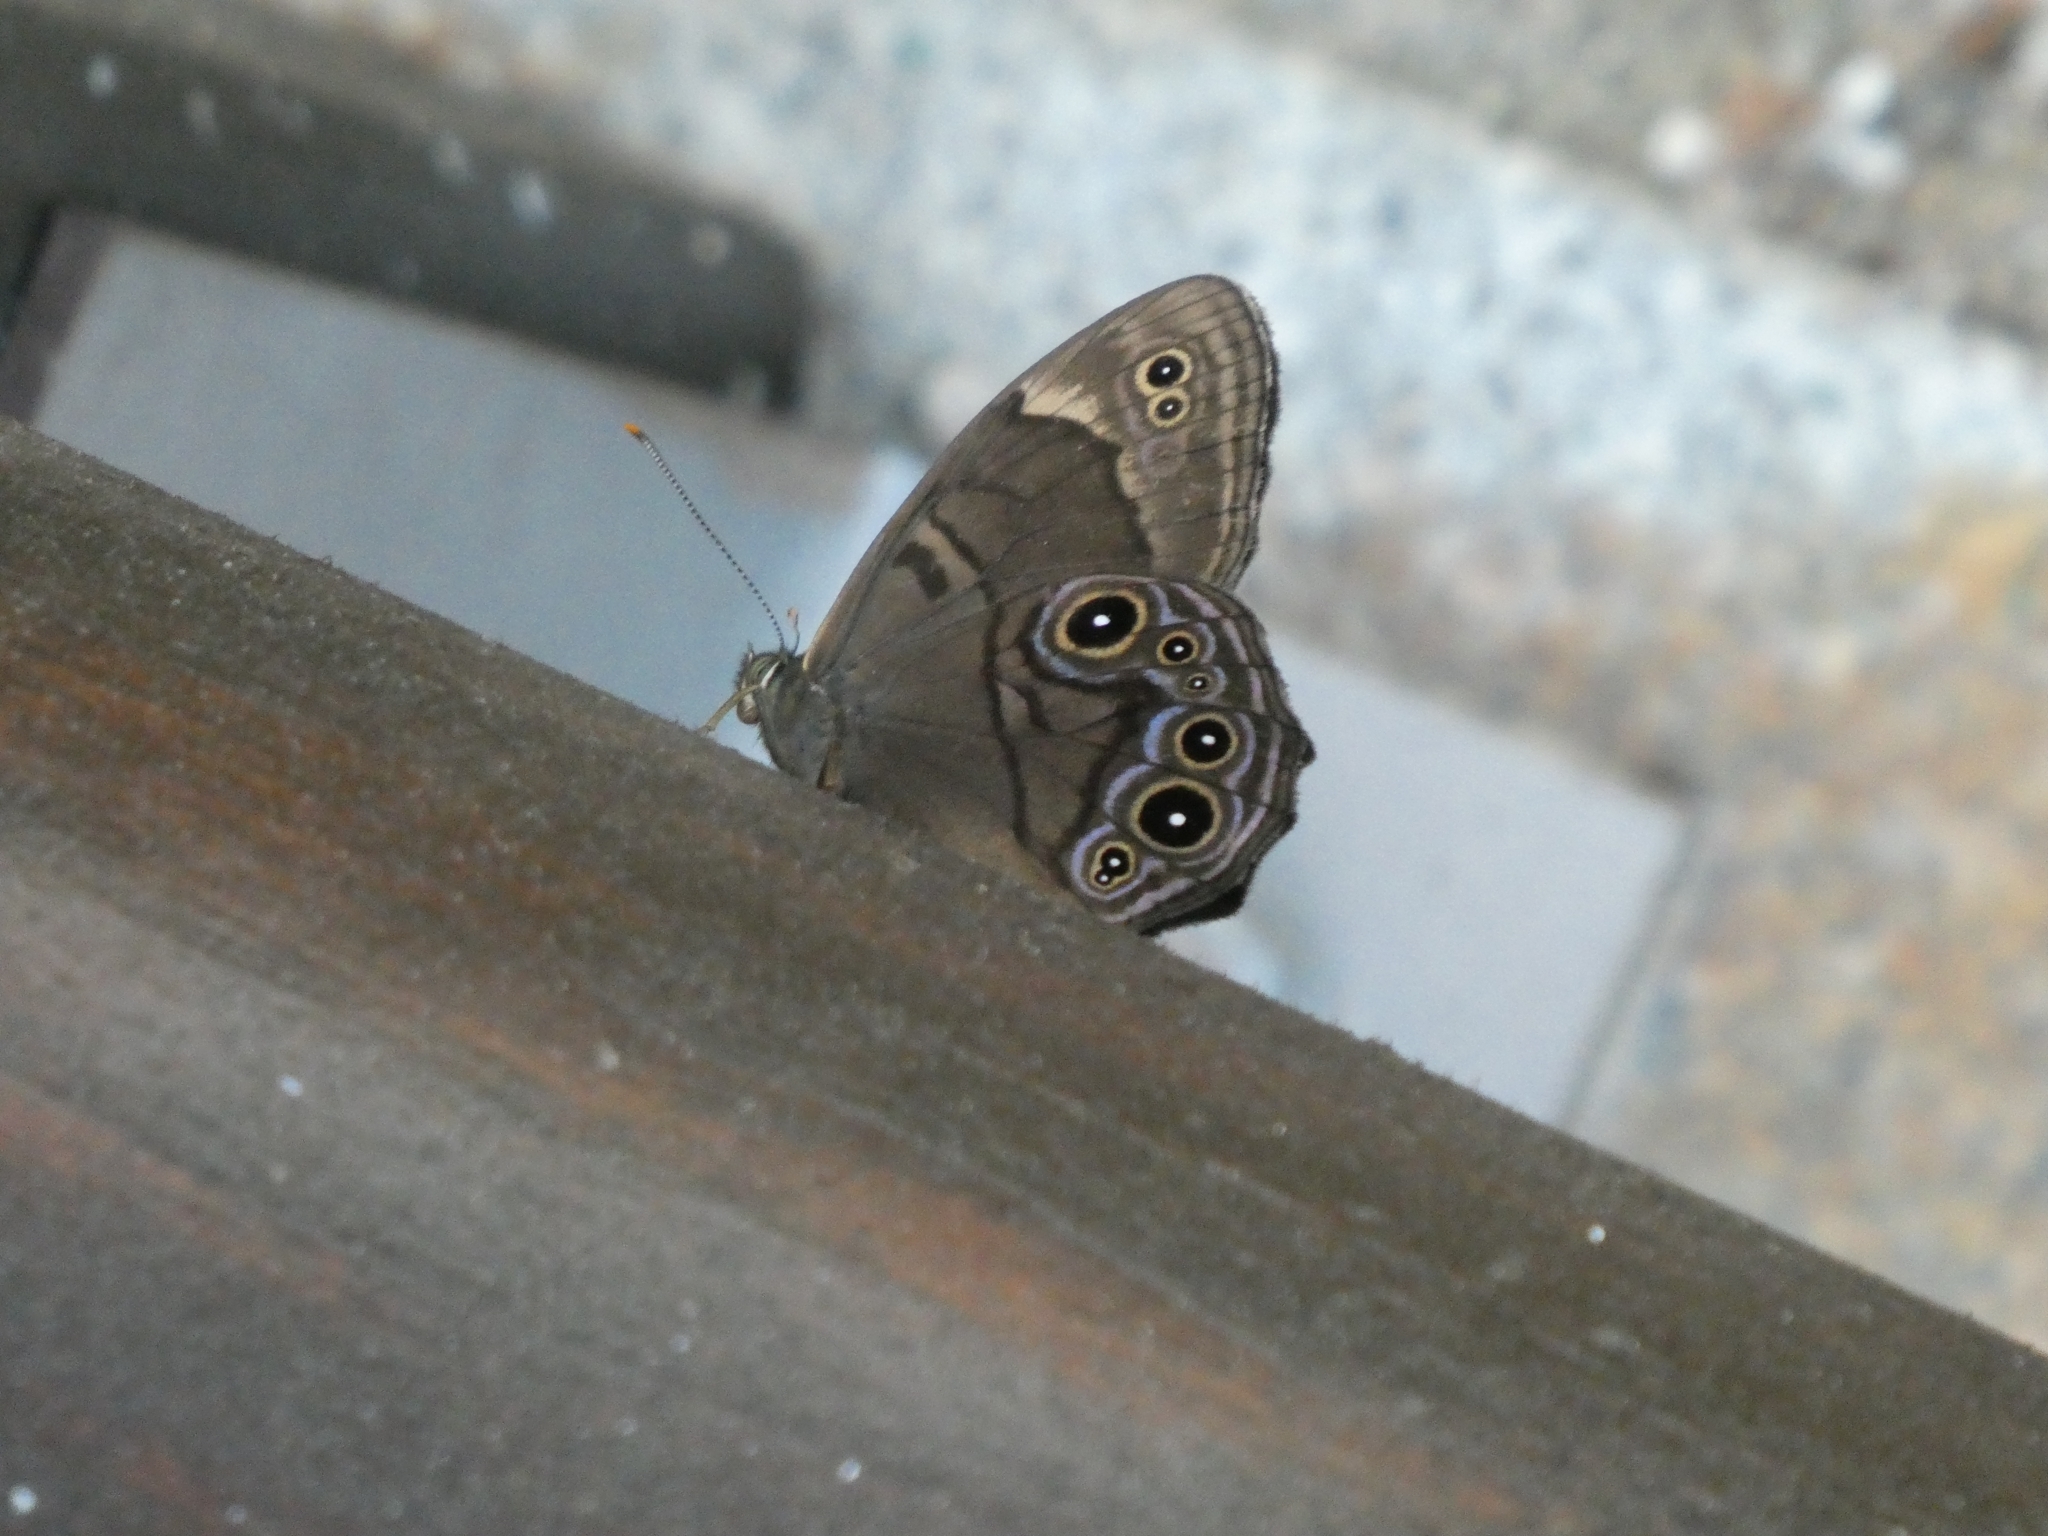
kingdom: Animalia
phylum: Arthropoda
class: Insecta
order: Lepidoptera
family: Nymphalidae
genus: Lethe
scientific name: Lethe diana
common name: Diana treebrown
